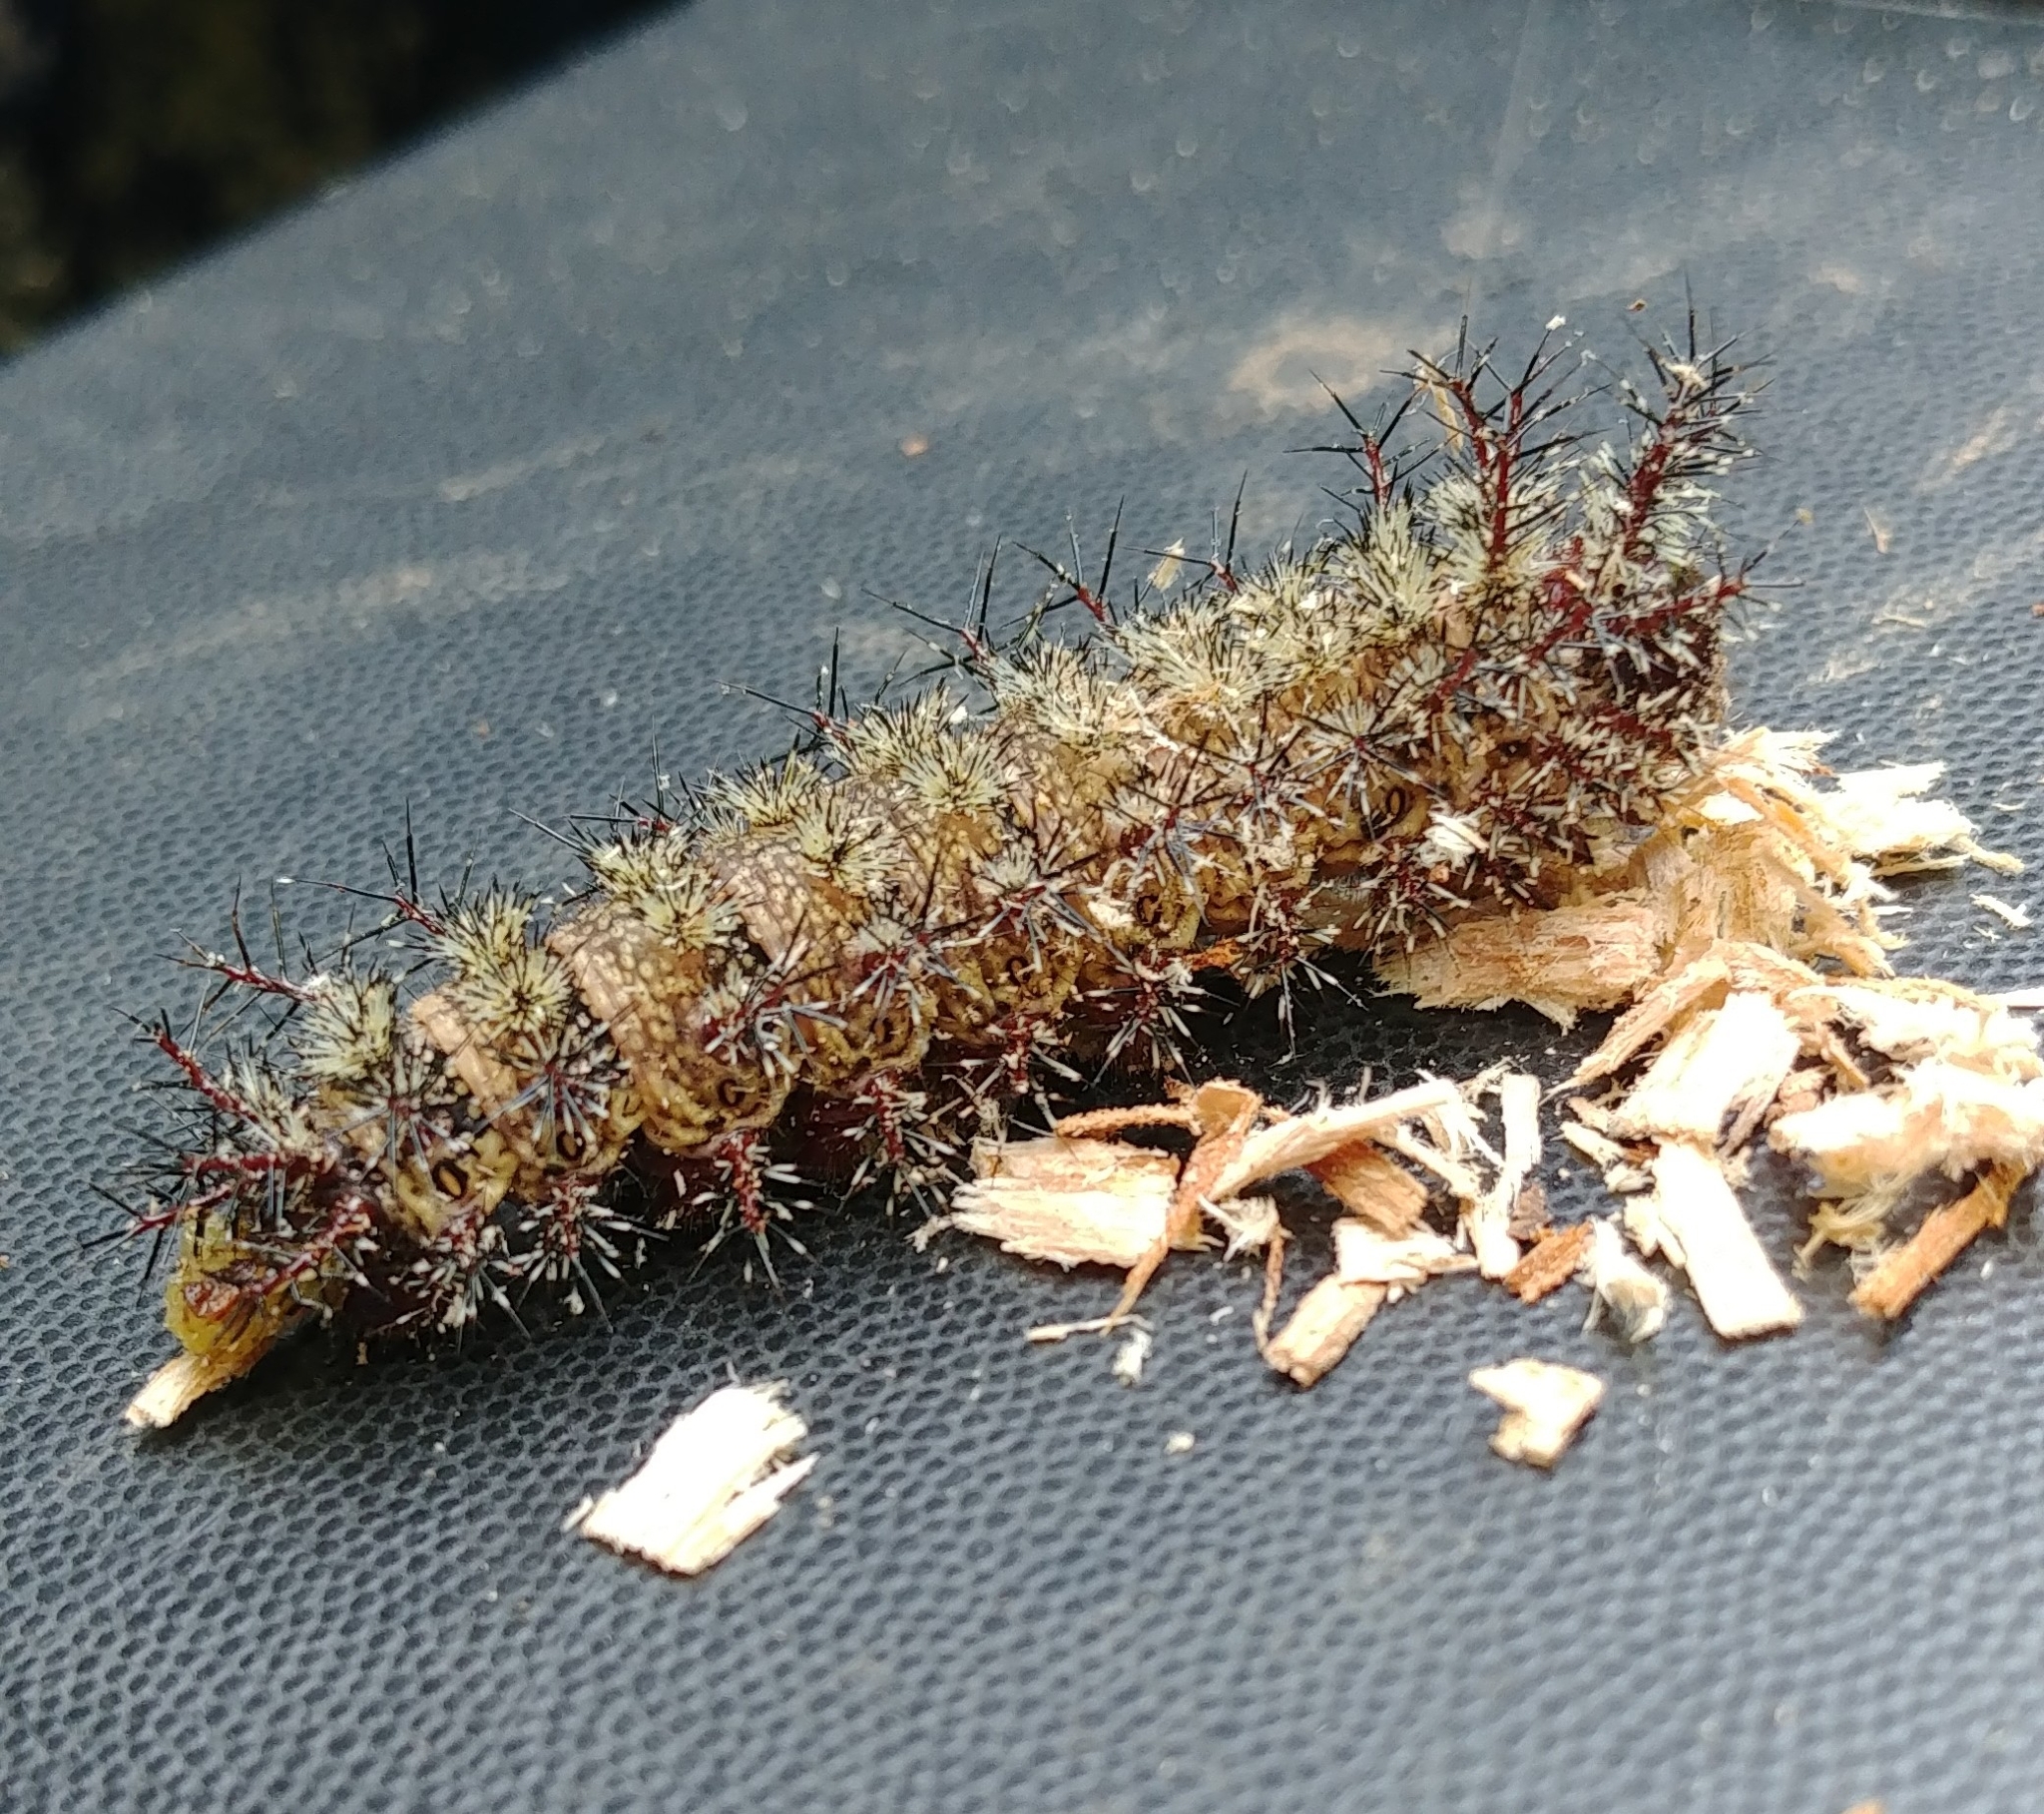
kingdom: Animalia
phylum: Arthropoda
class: Insecta
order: Lepidoptera
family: Saturniidae
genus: Hemileuca
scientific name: Hemileuca maia
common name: Eastern buckmoth
